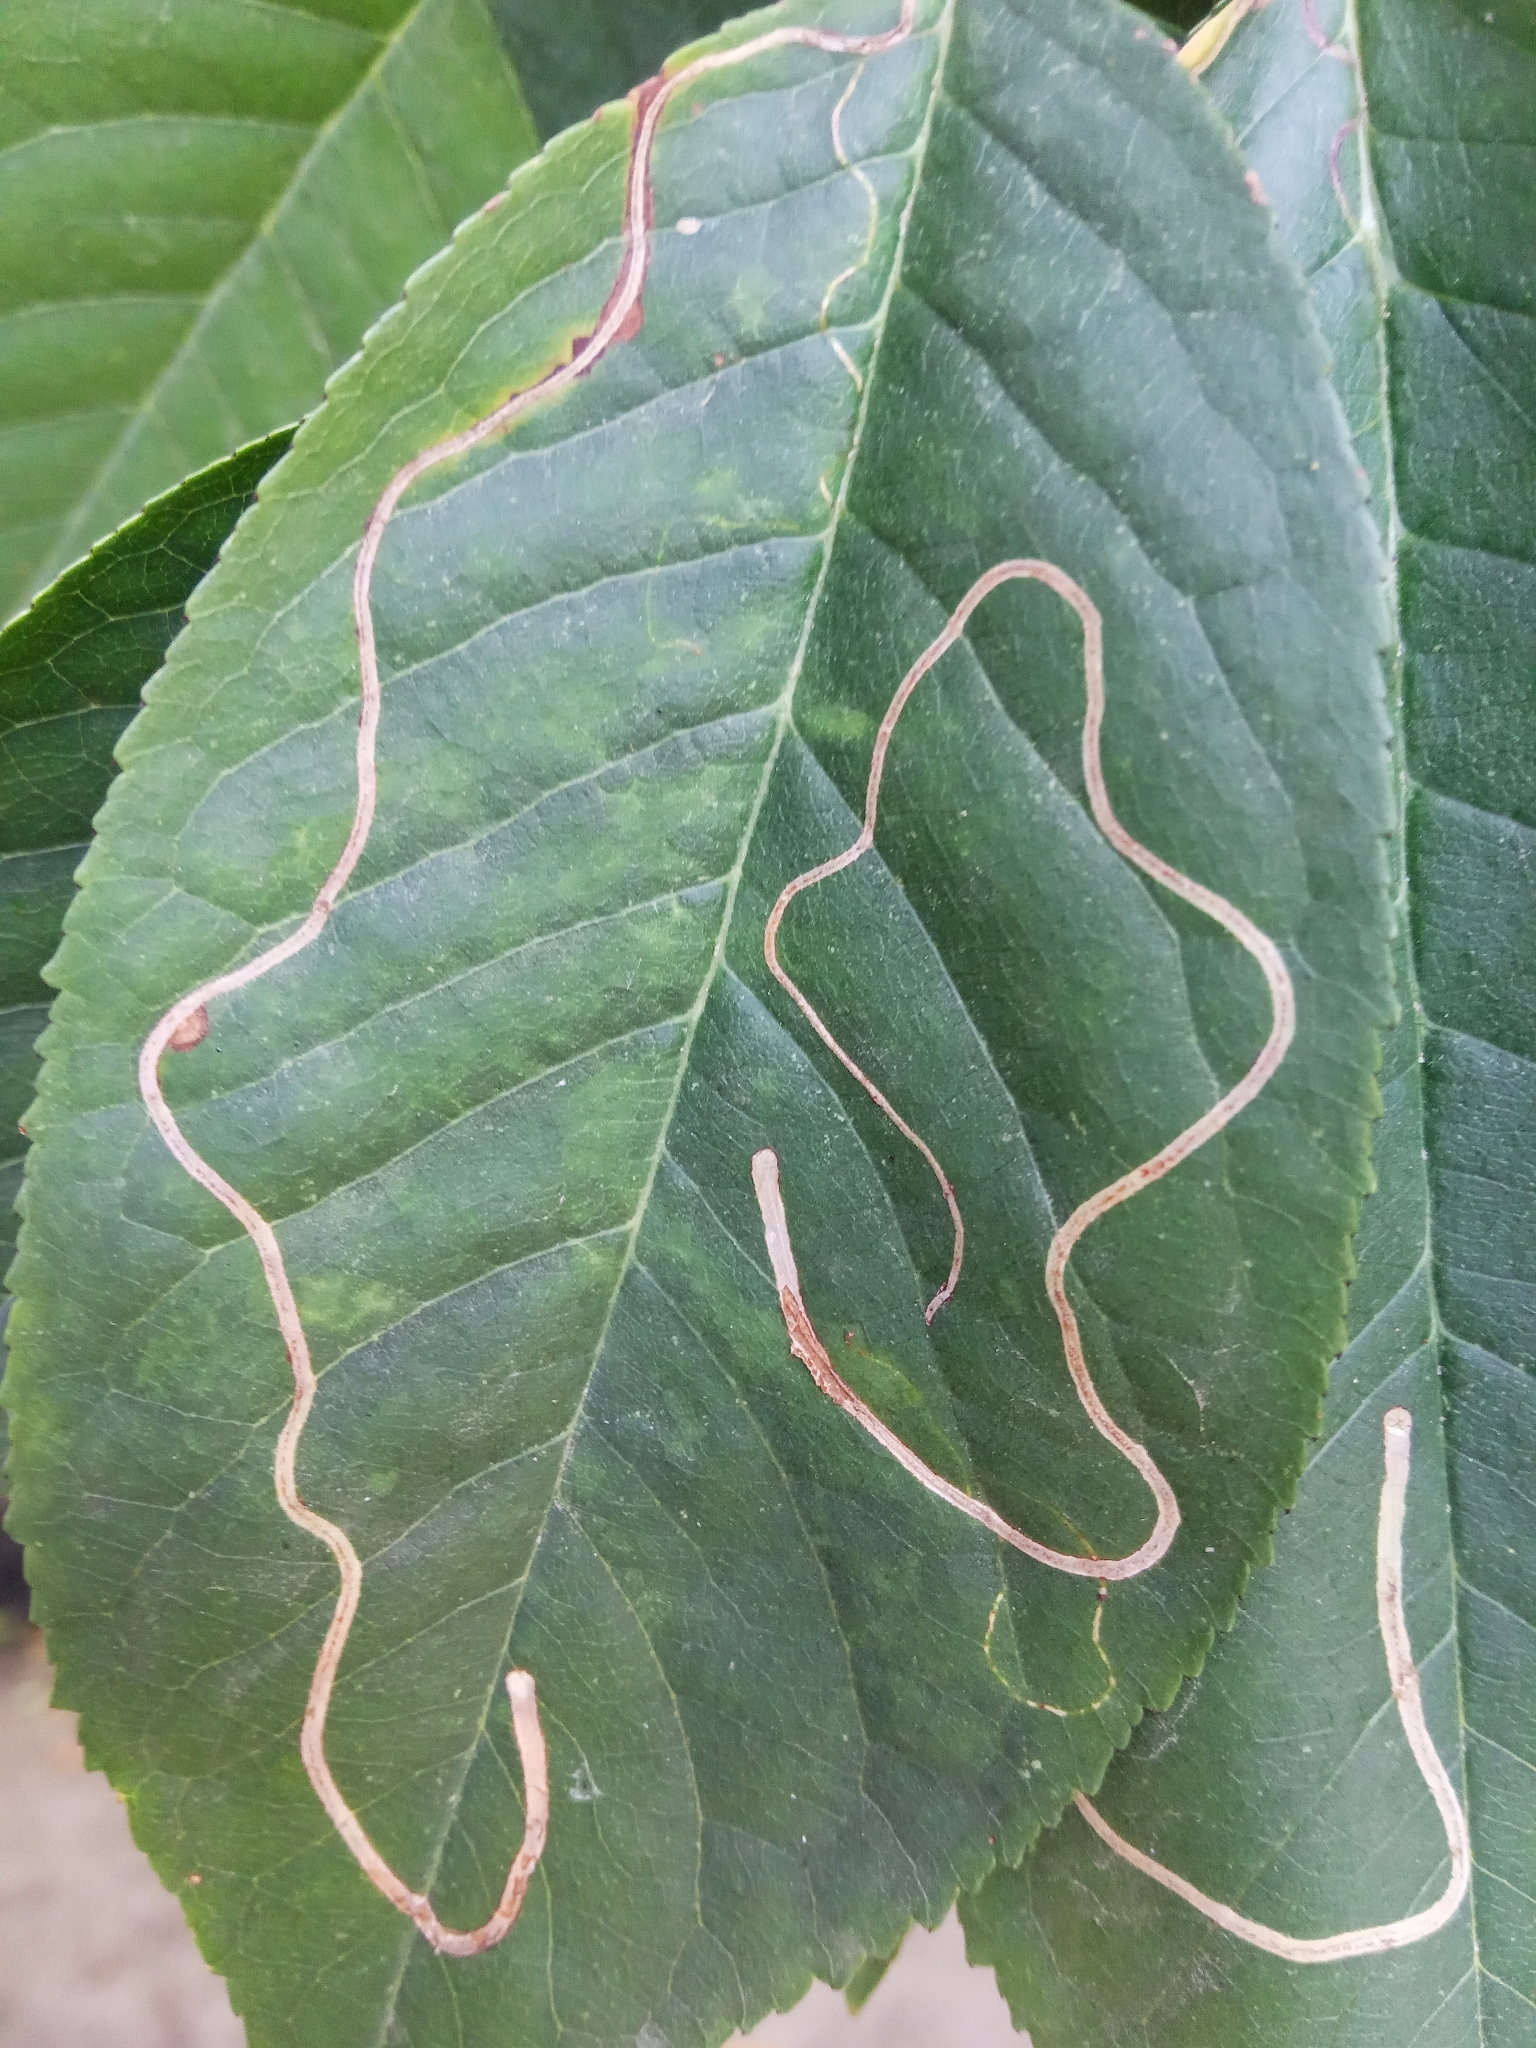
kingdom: Animalia
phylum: Arthropoda
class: Insecta
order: Lepidoptera
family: Lyonetiidae
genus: Lyonetia
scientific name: Lyonetia clerkella
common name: Apple leaf miner
